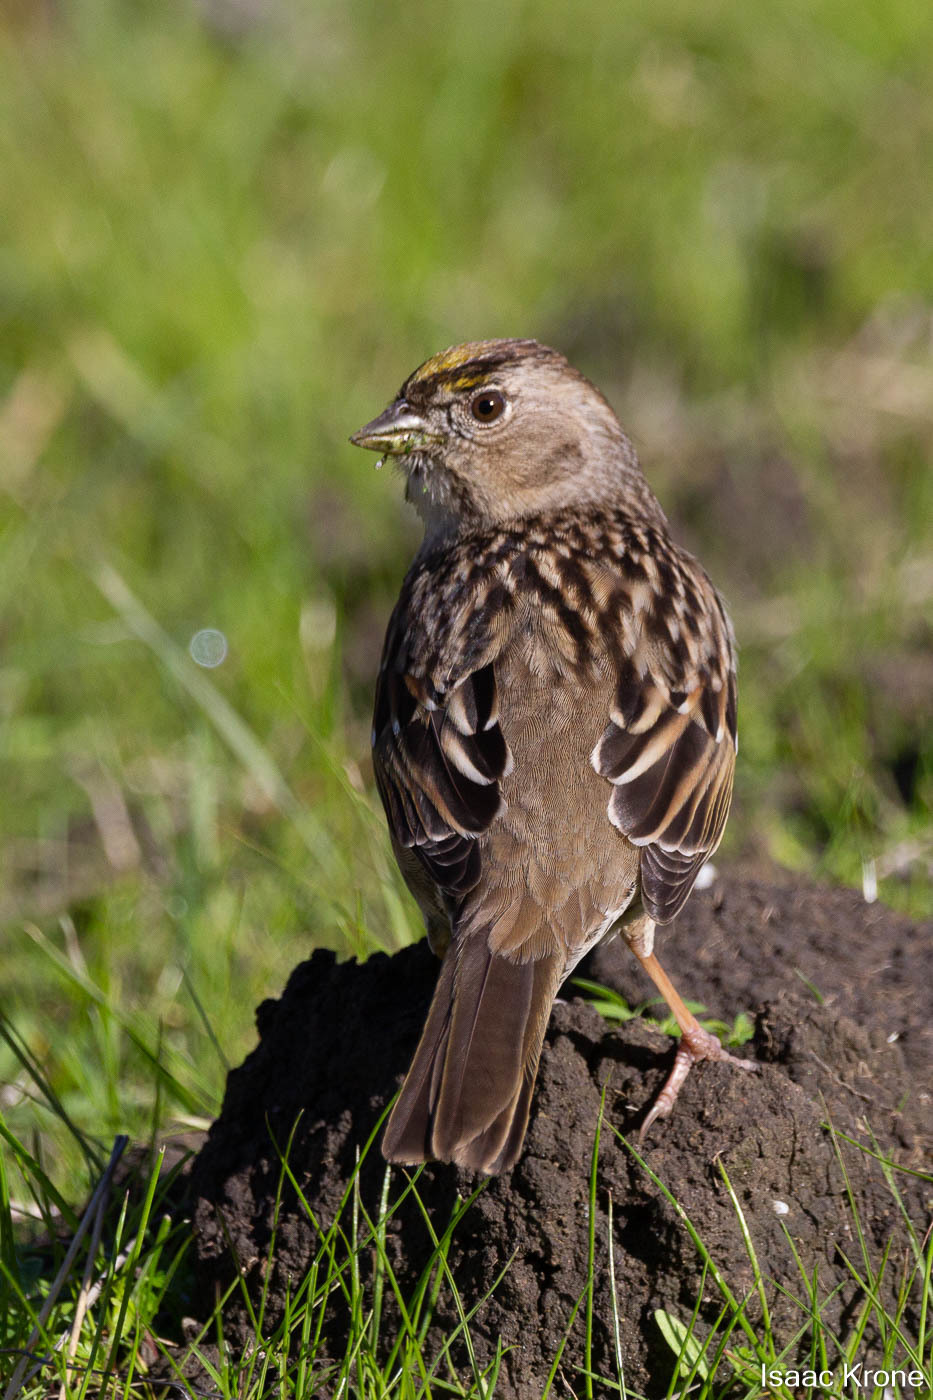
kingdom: Animalia
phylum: Chordata
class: Aves
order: Passeriformes
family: Passerellidae
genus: Zonotrichia
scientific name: Zonotrichia atricapilla
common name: Golden-crowned sparrow
